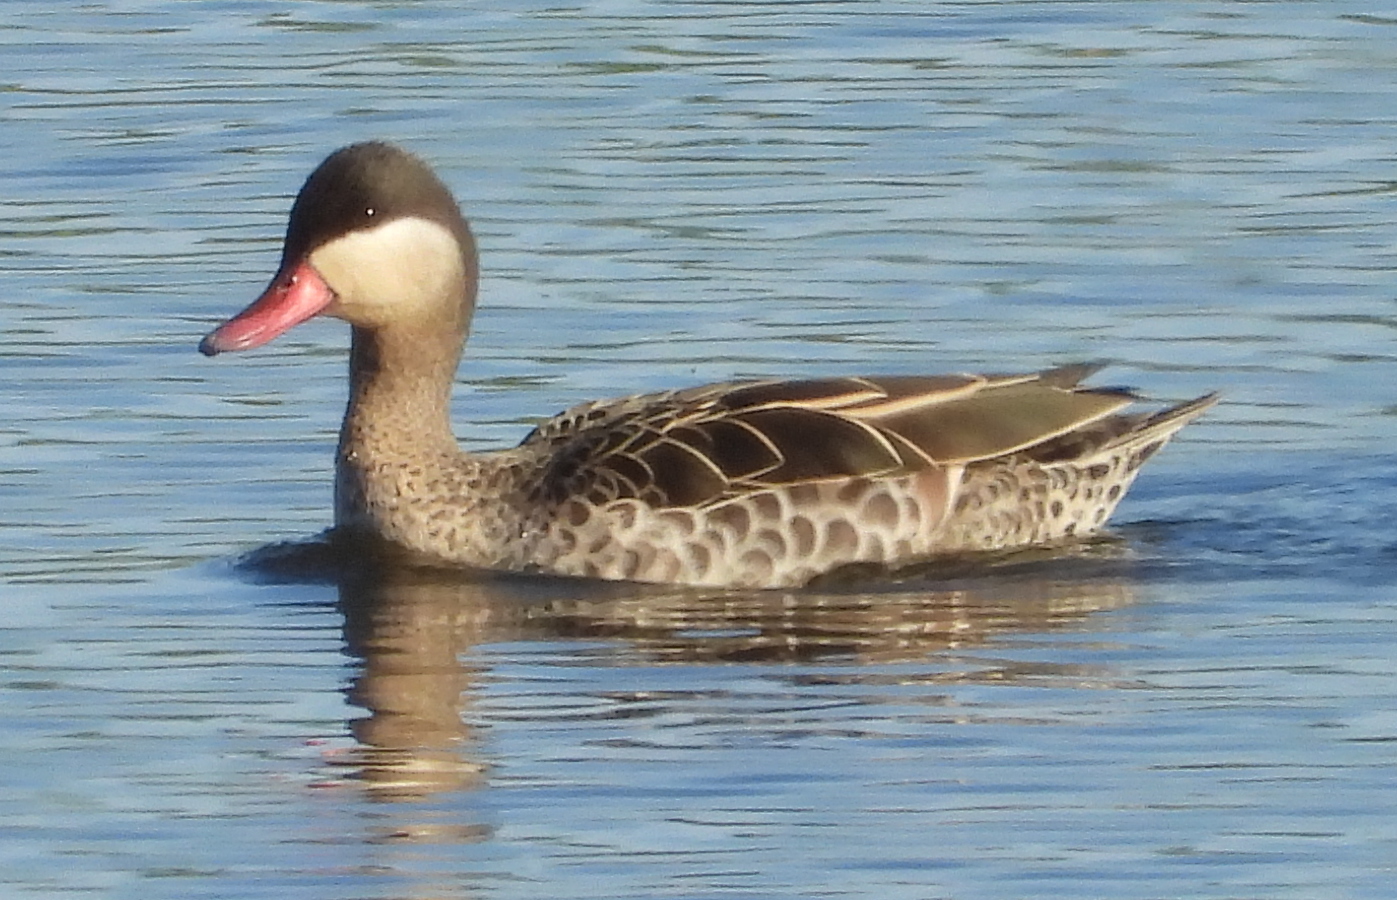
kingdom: Animalia
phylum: Chordata
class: Aves
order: Anseriformes
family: Anatidae
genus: Anas
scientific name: Anas erythrorhyncha
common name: Red-billed teal
